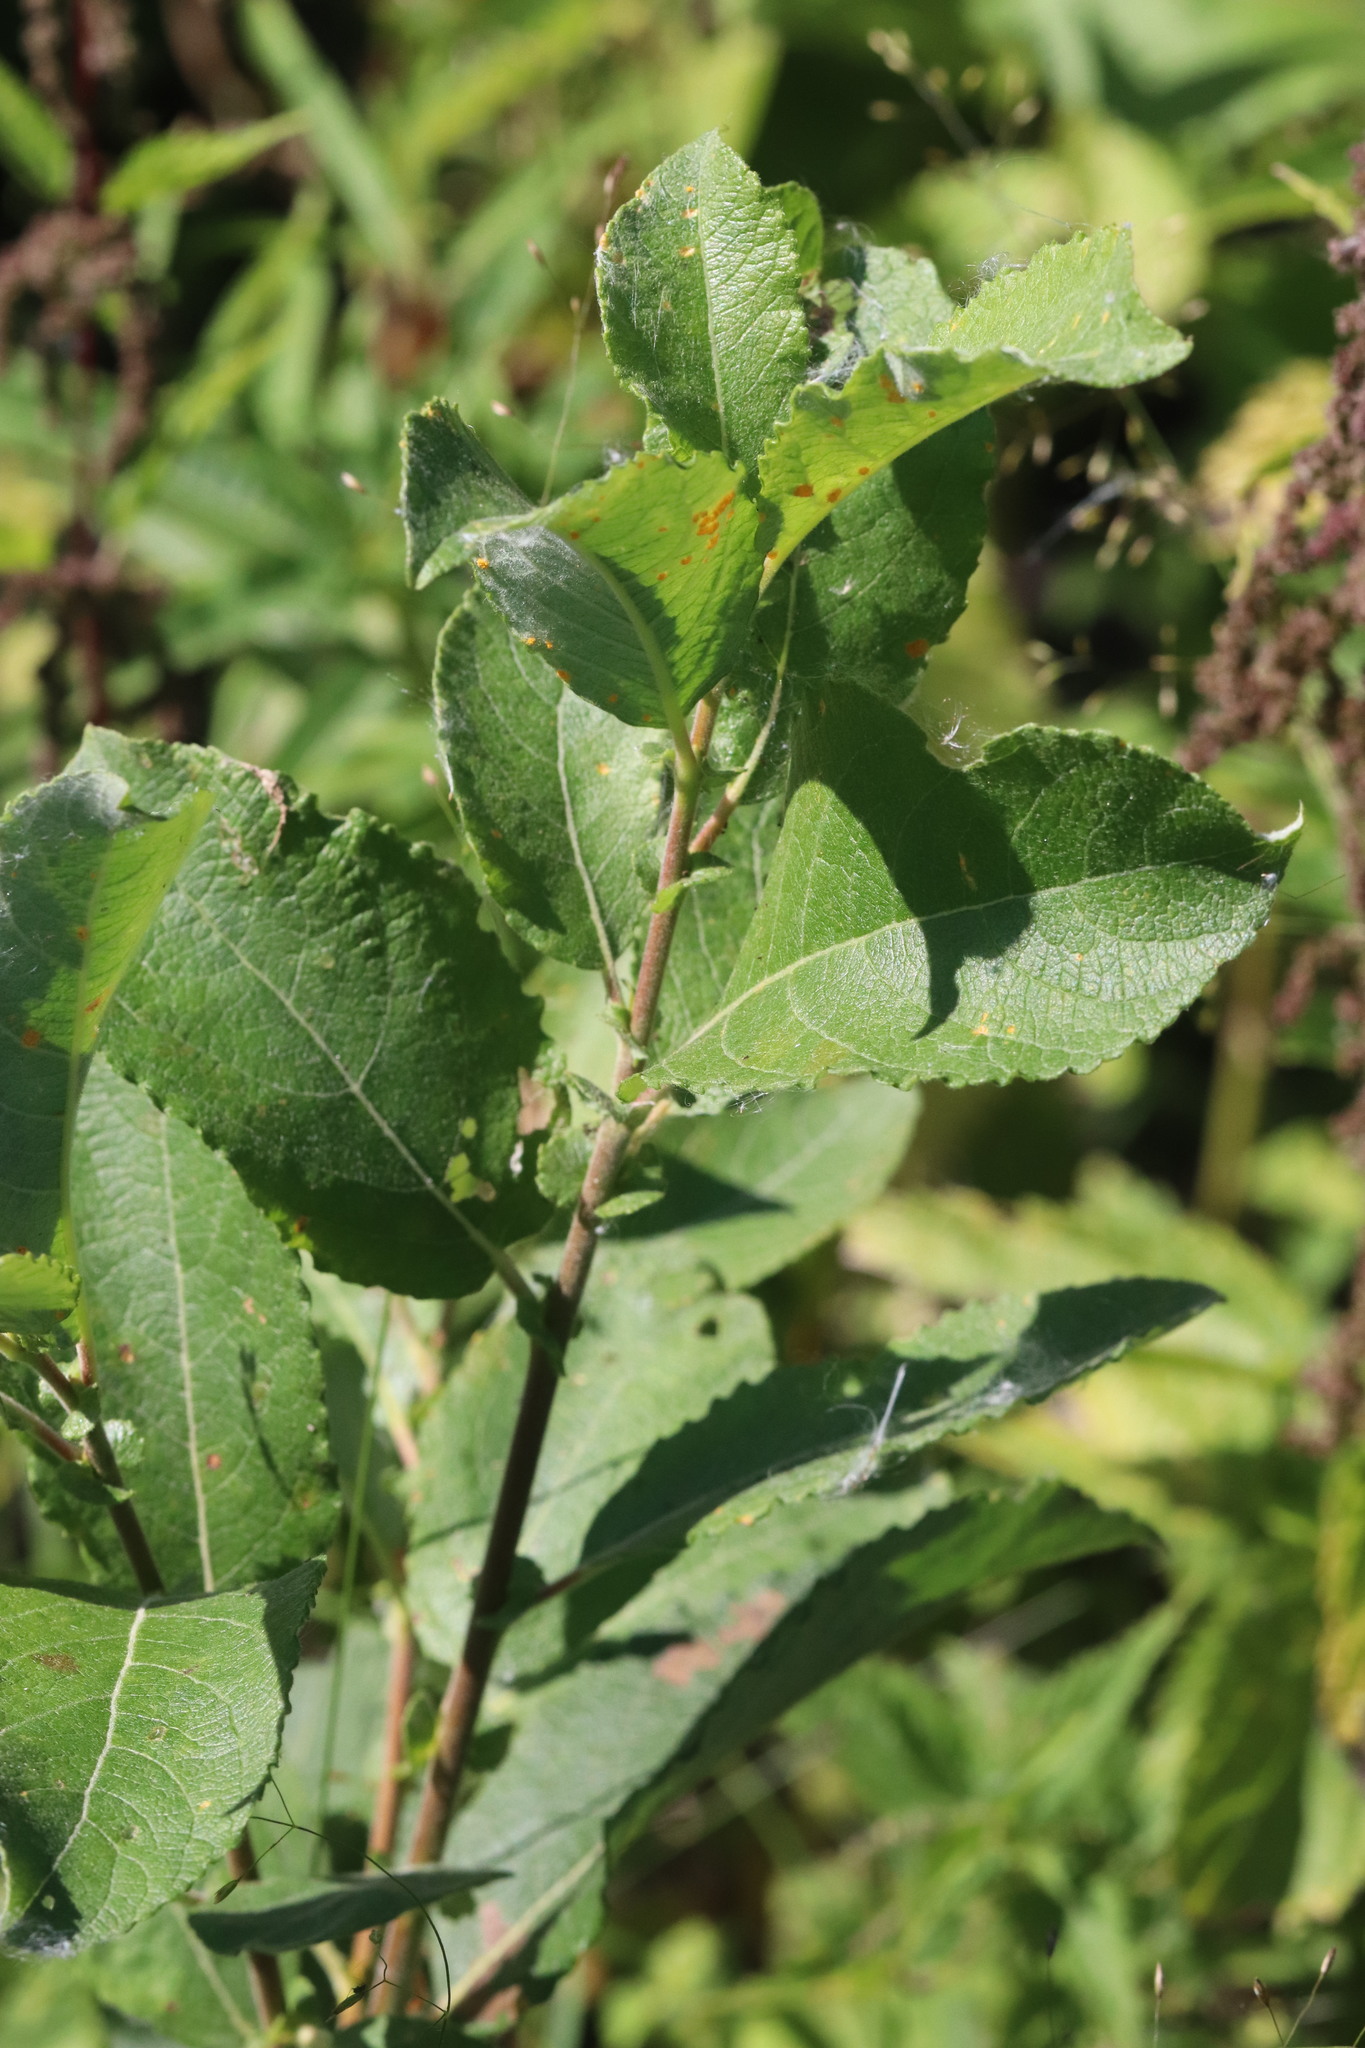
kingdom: Plantae
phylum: Tracheophyta
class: Magnoliopsida
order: Malpighiales
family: Salicaceae
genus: Salix
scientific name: Salix caprea
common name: Goat willow
